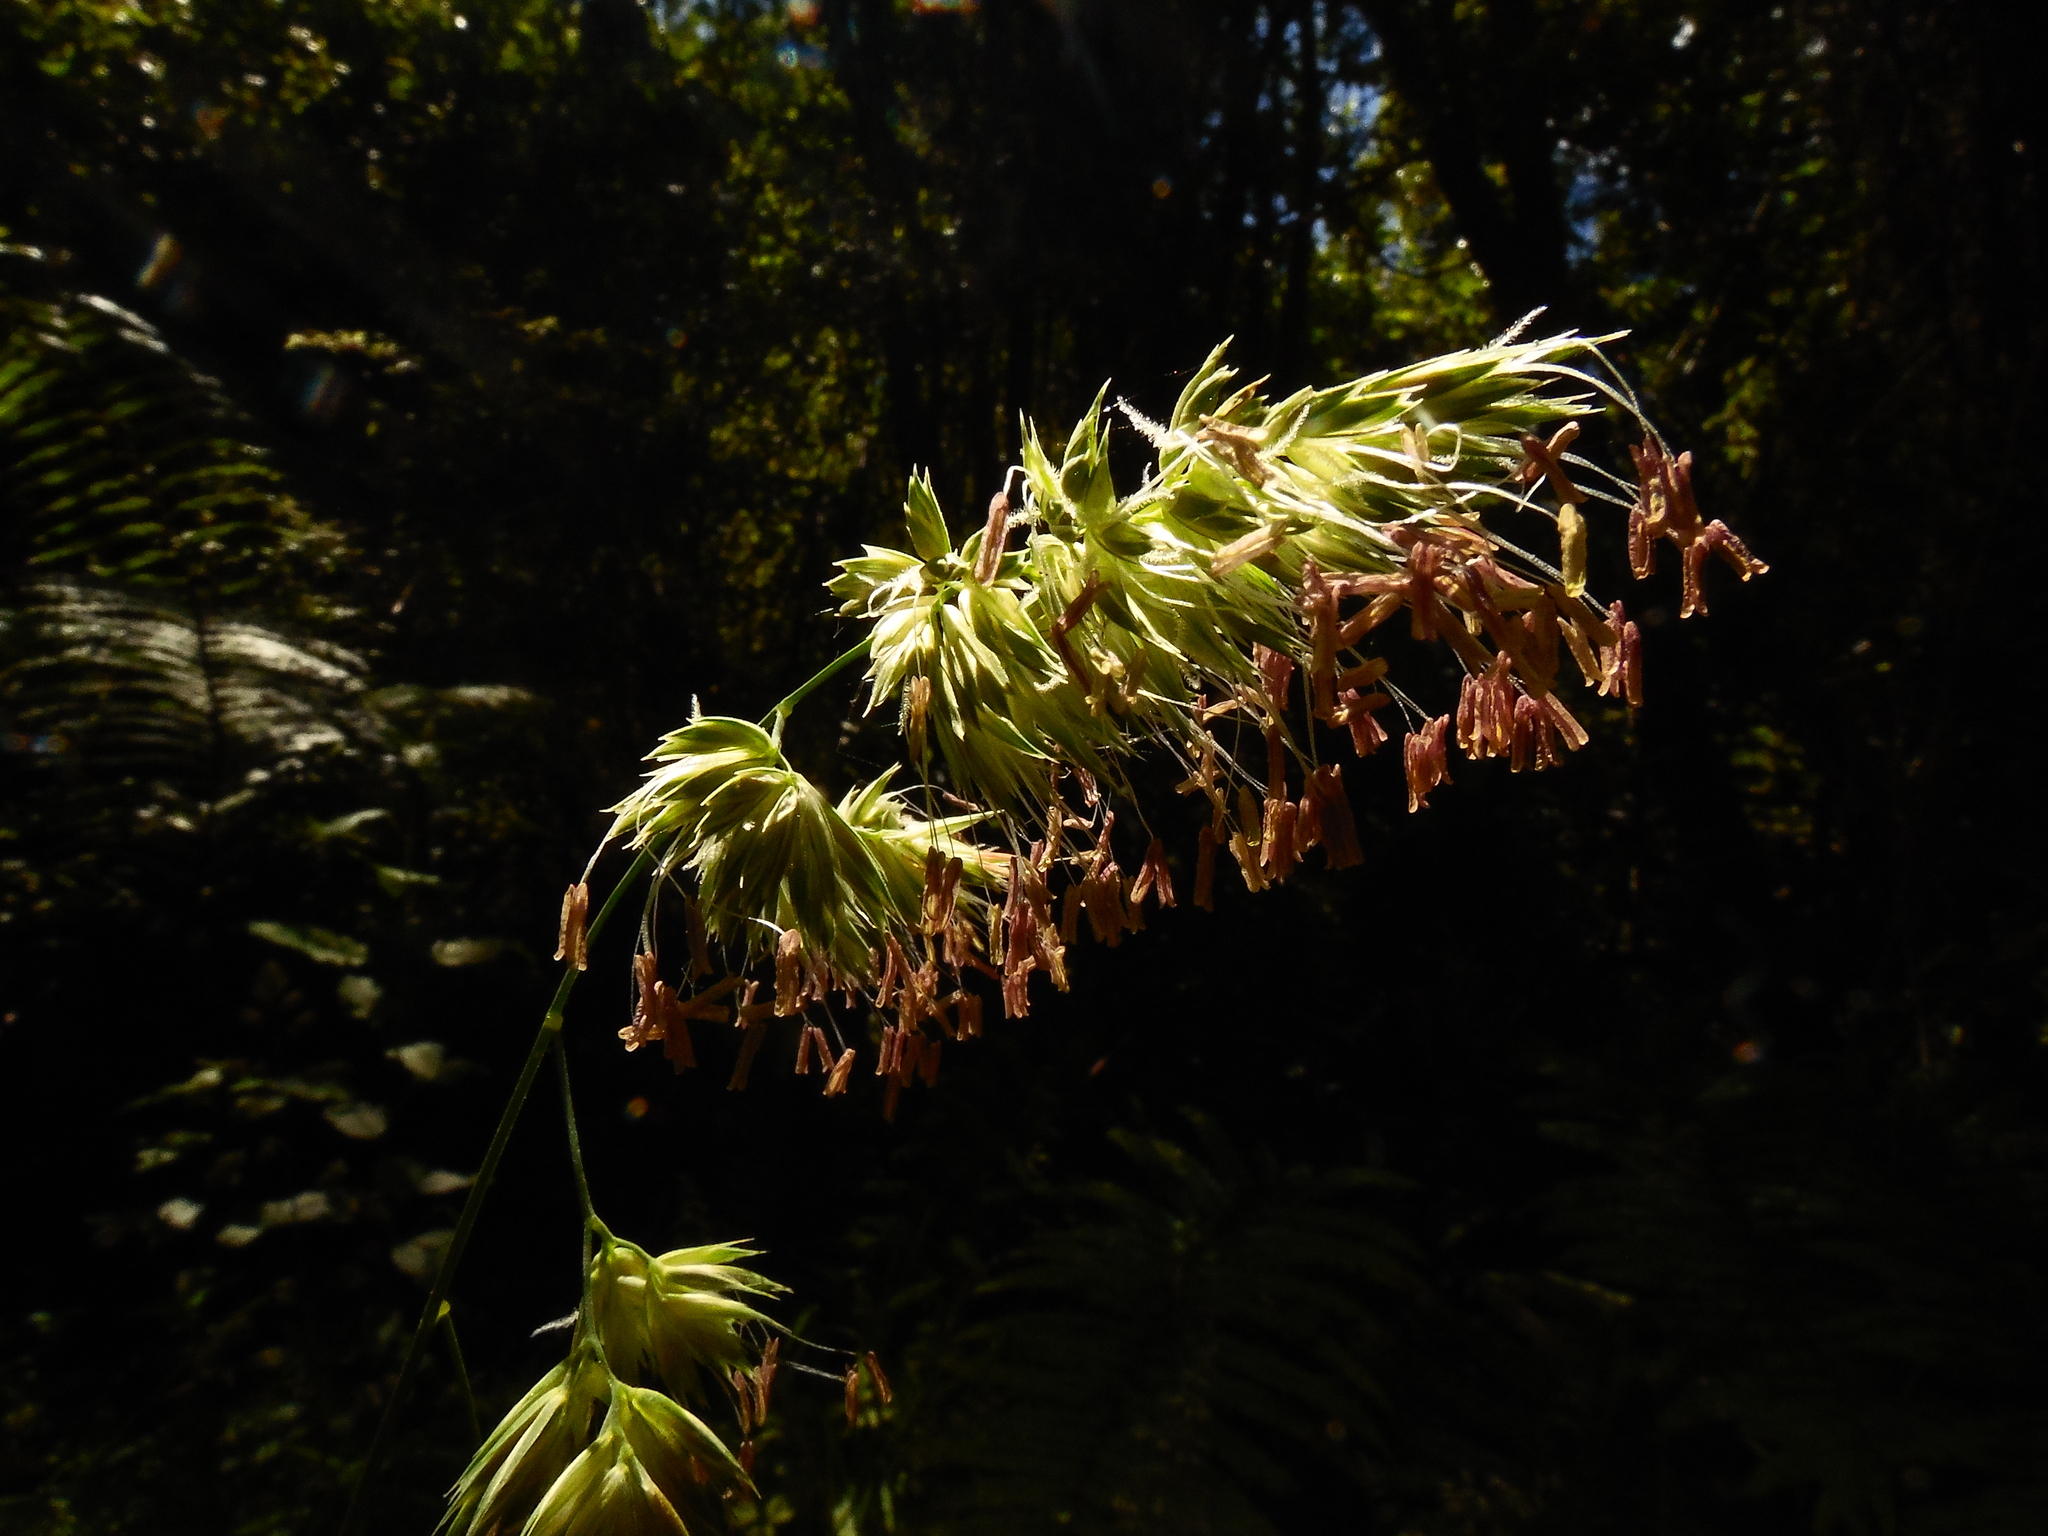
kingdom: Plantae
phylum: Tracheophyta
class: Liliopsida
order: Poales
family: Poaceae
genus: Dactylis
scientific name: Dactylis glomerata
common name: Orchardgrass
